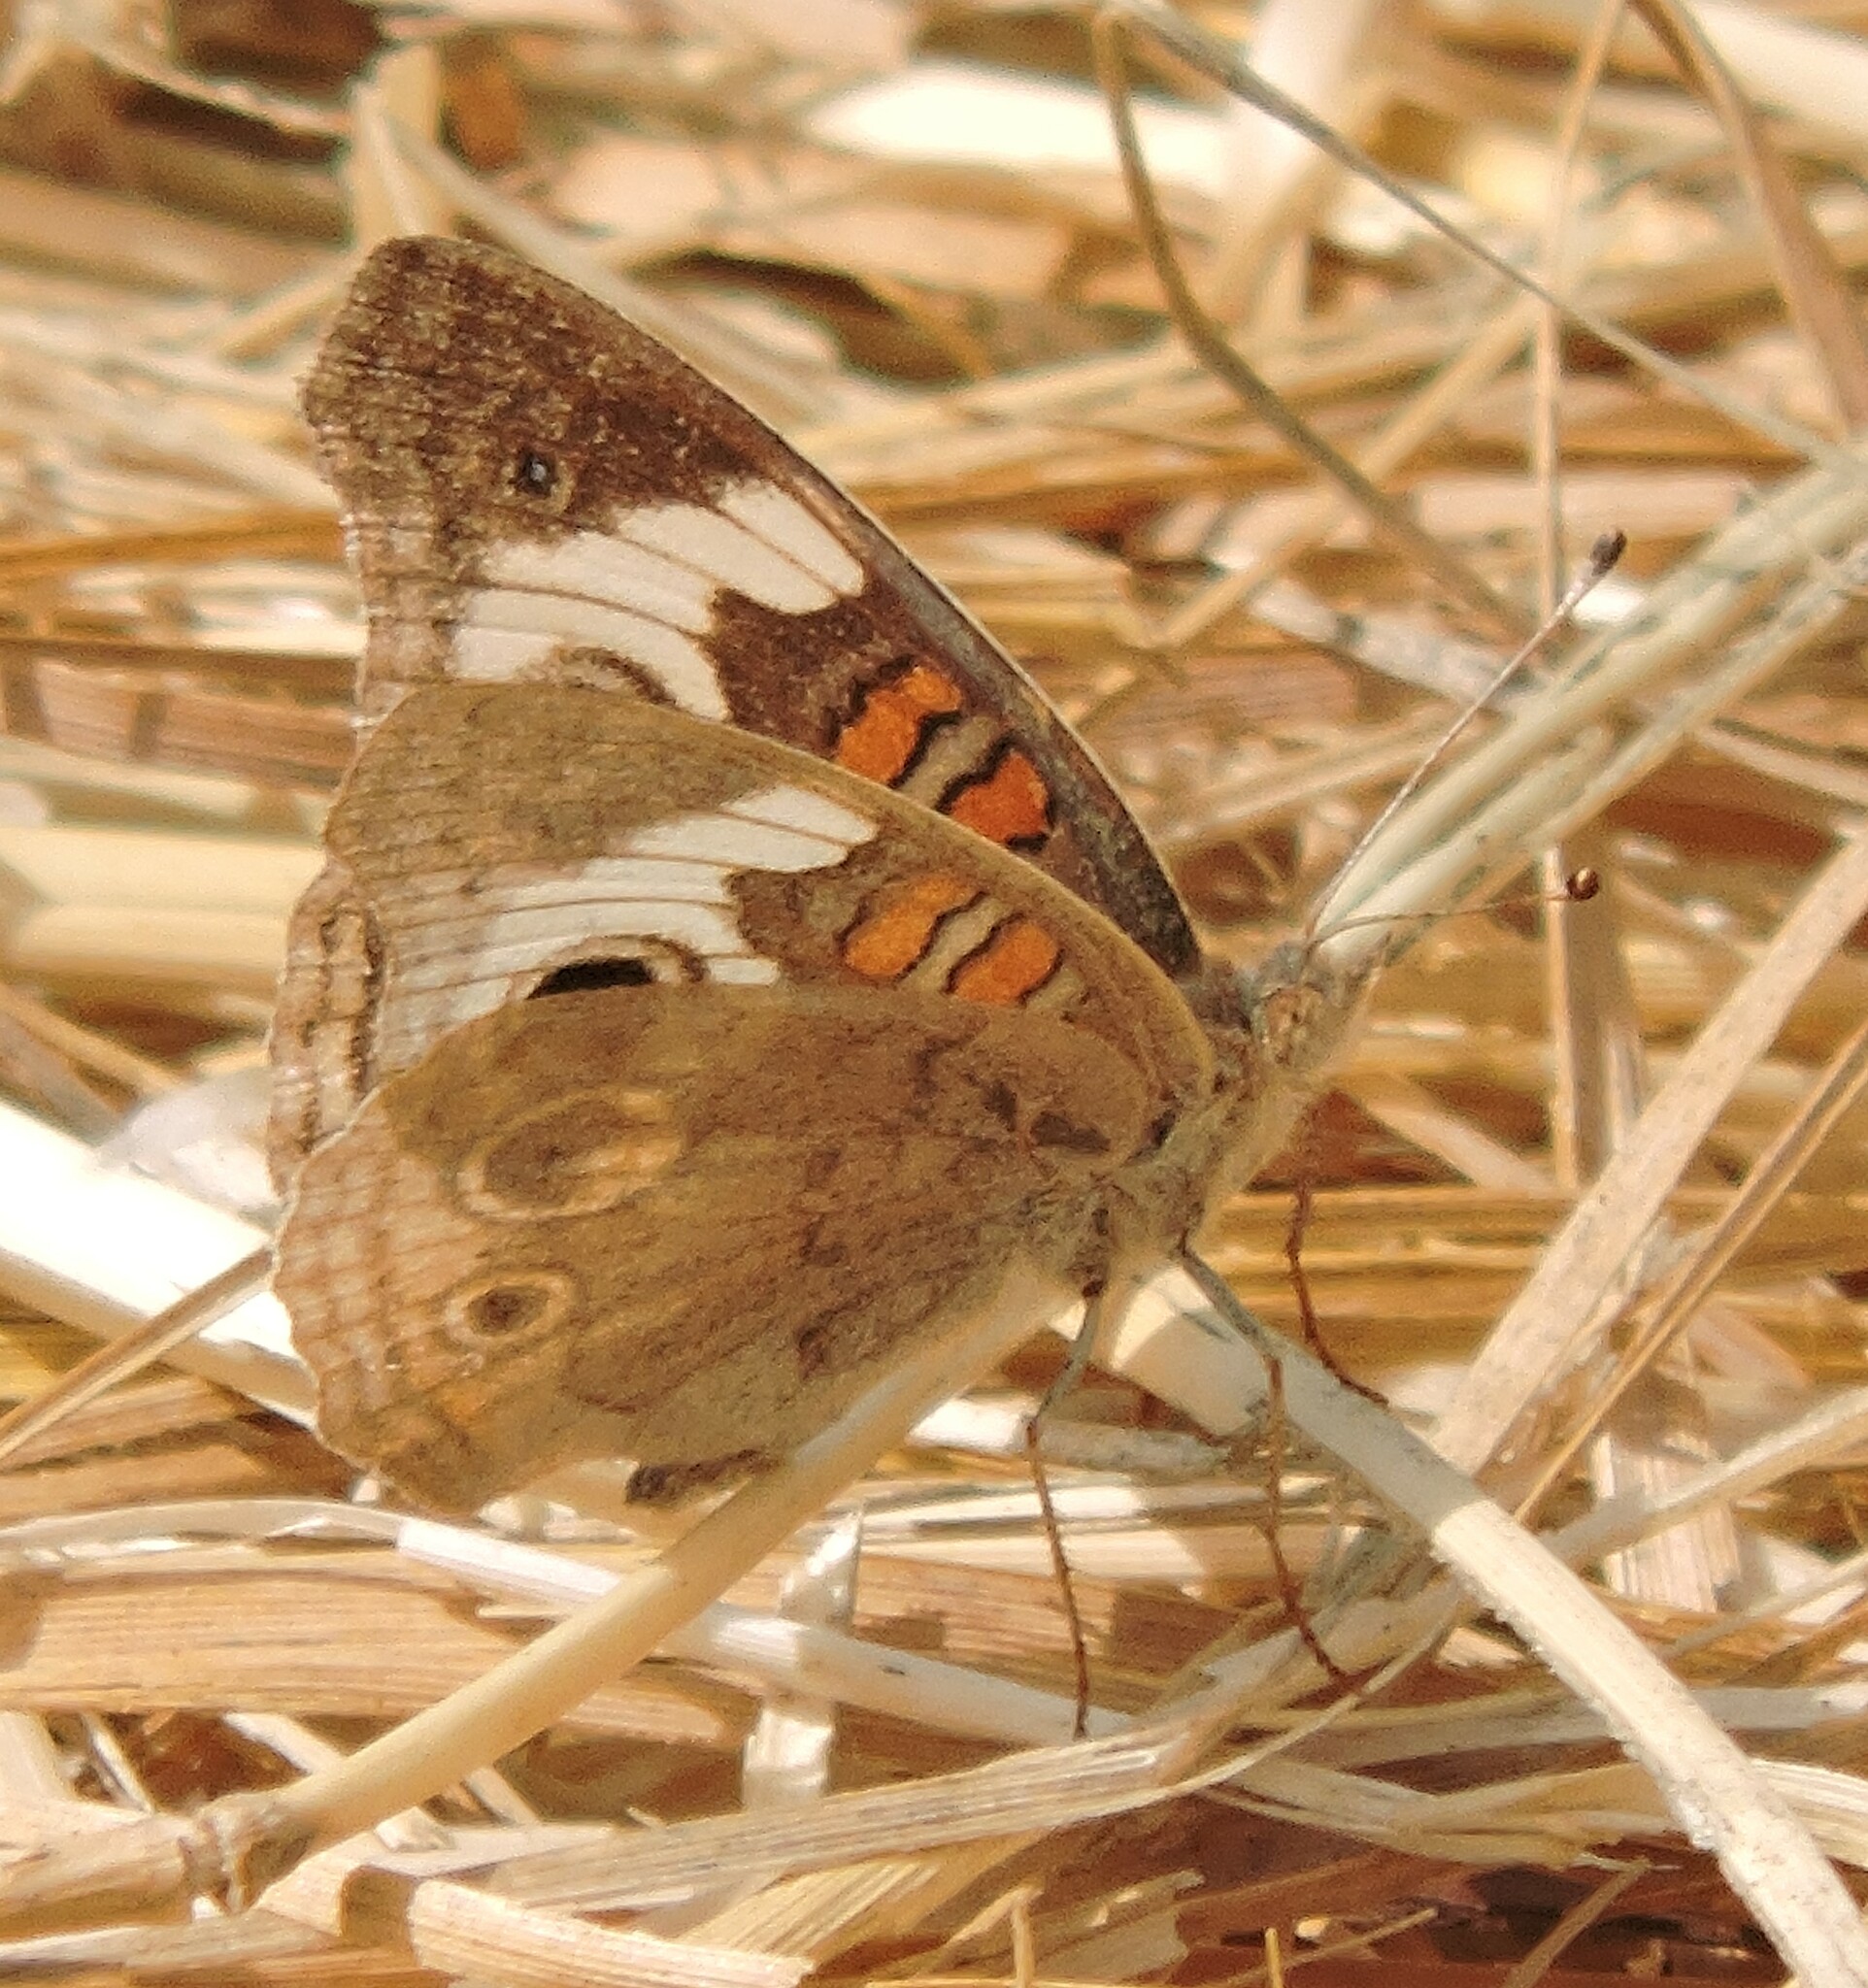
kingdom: Animalia
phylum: Arthropoda
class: Insecta
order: Lepidoptera
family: Nymphalidae
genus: Junonia
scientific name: Junonia grisea
